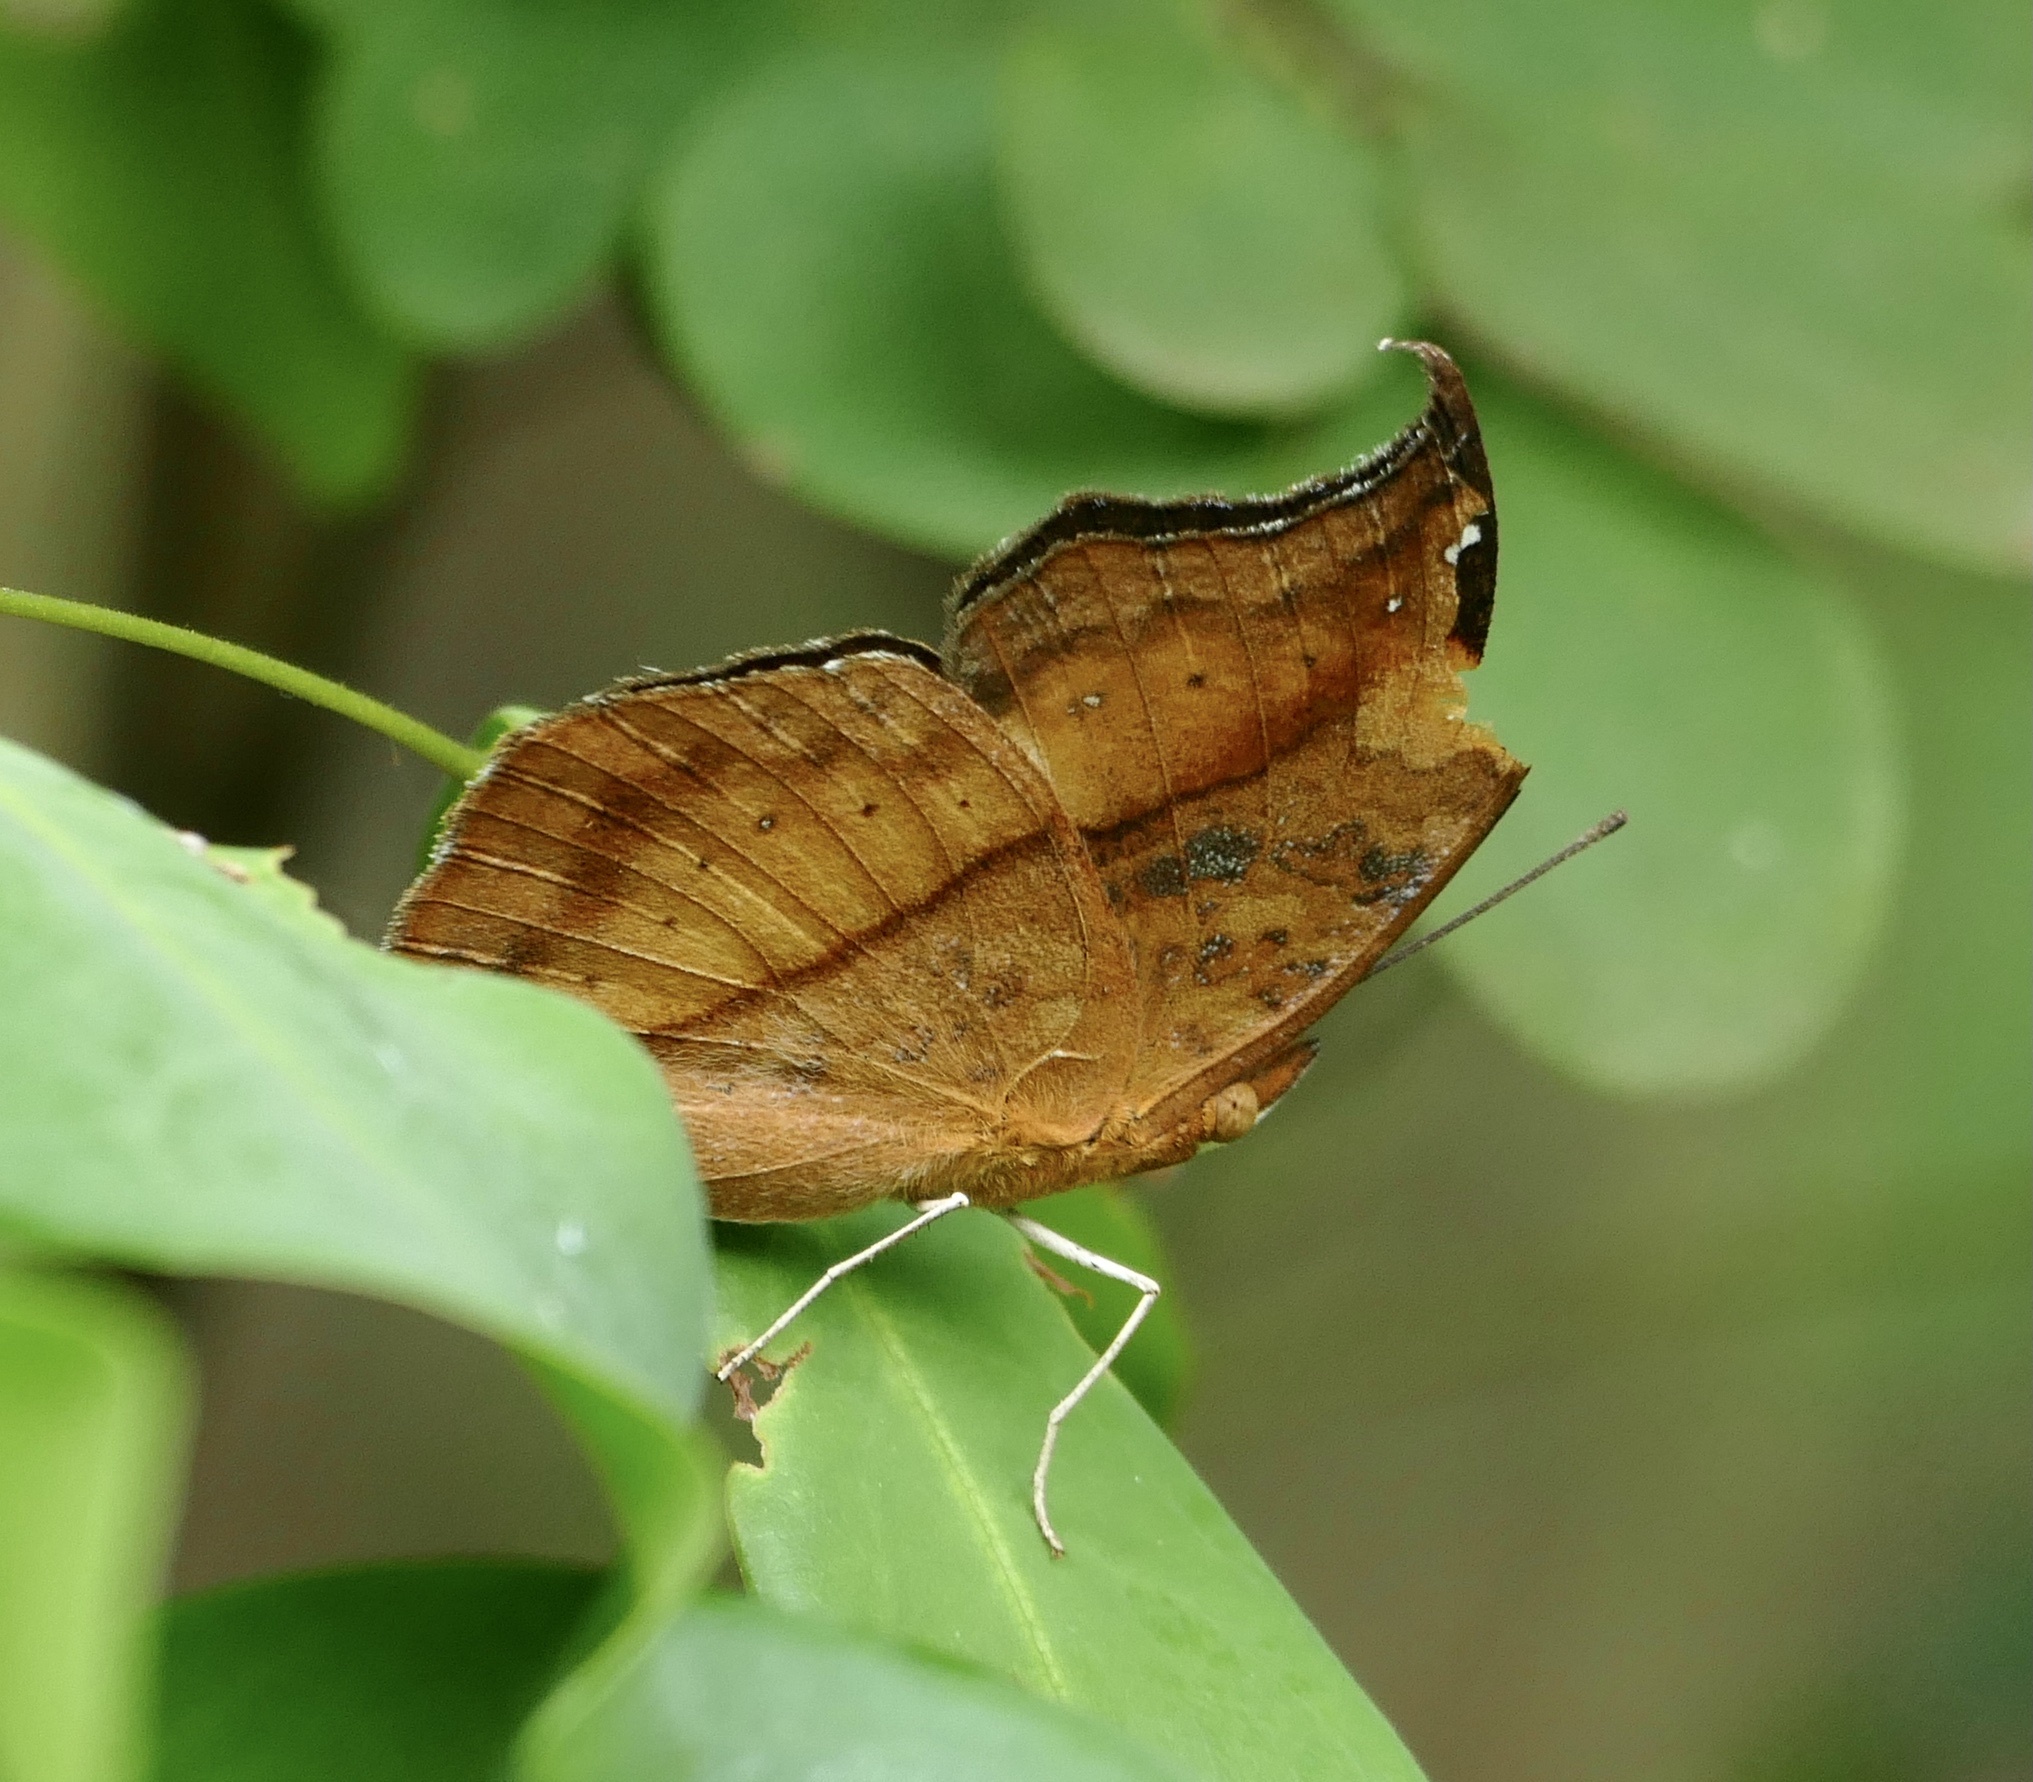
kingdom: Animalia
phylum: Arthropoda
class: Insecta
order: Lepidoptera
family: Nymphalidae
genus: Precis
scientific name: Precis pelarga
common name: Fashion commodore
